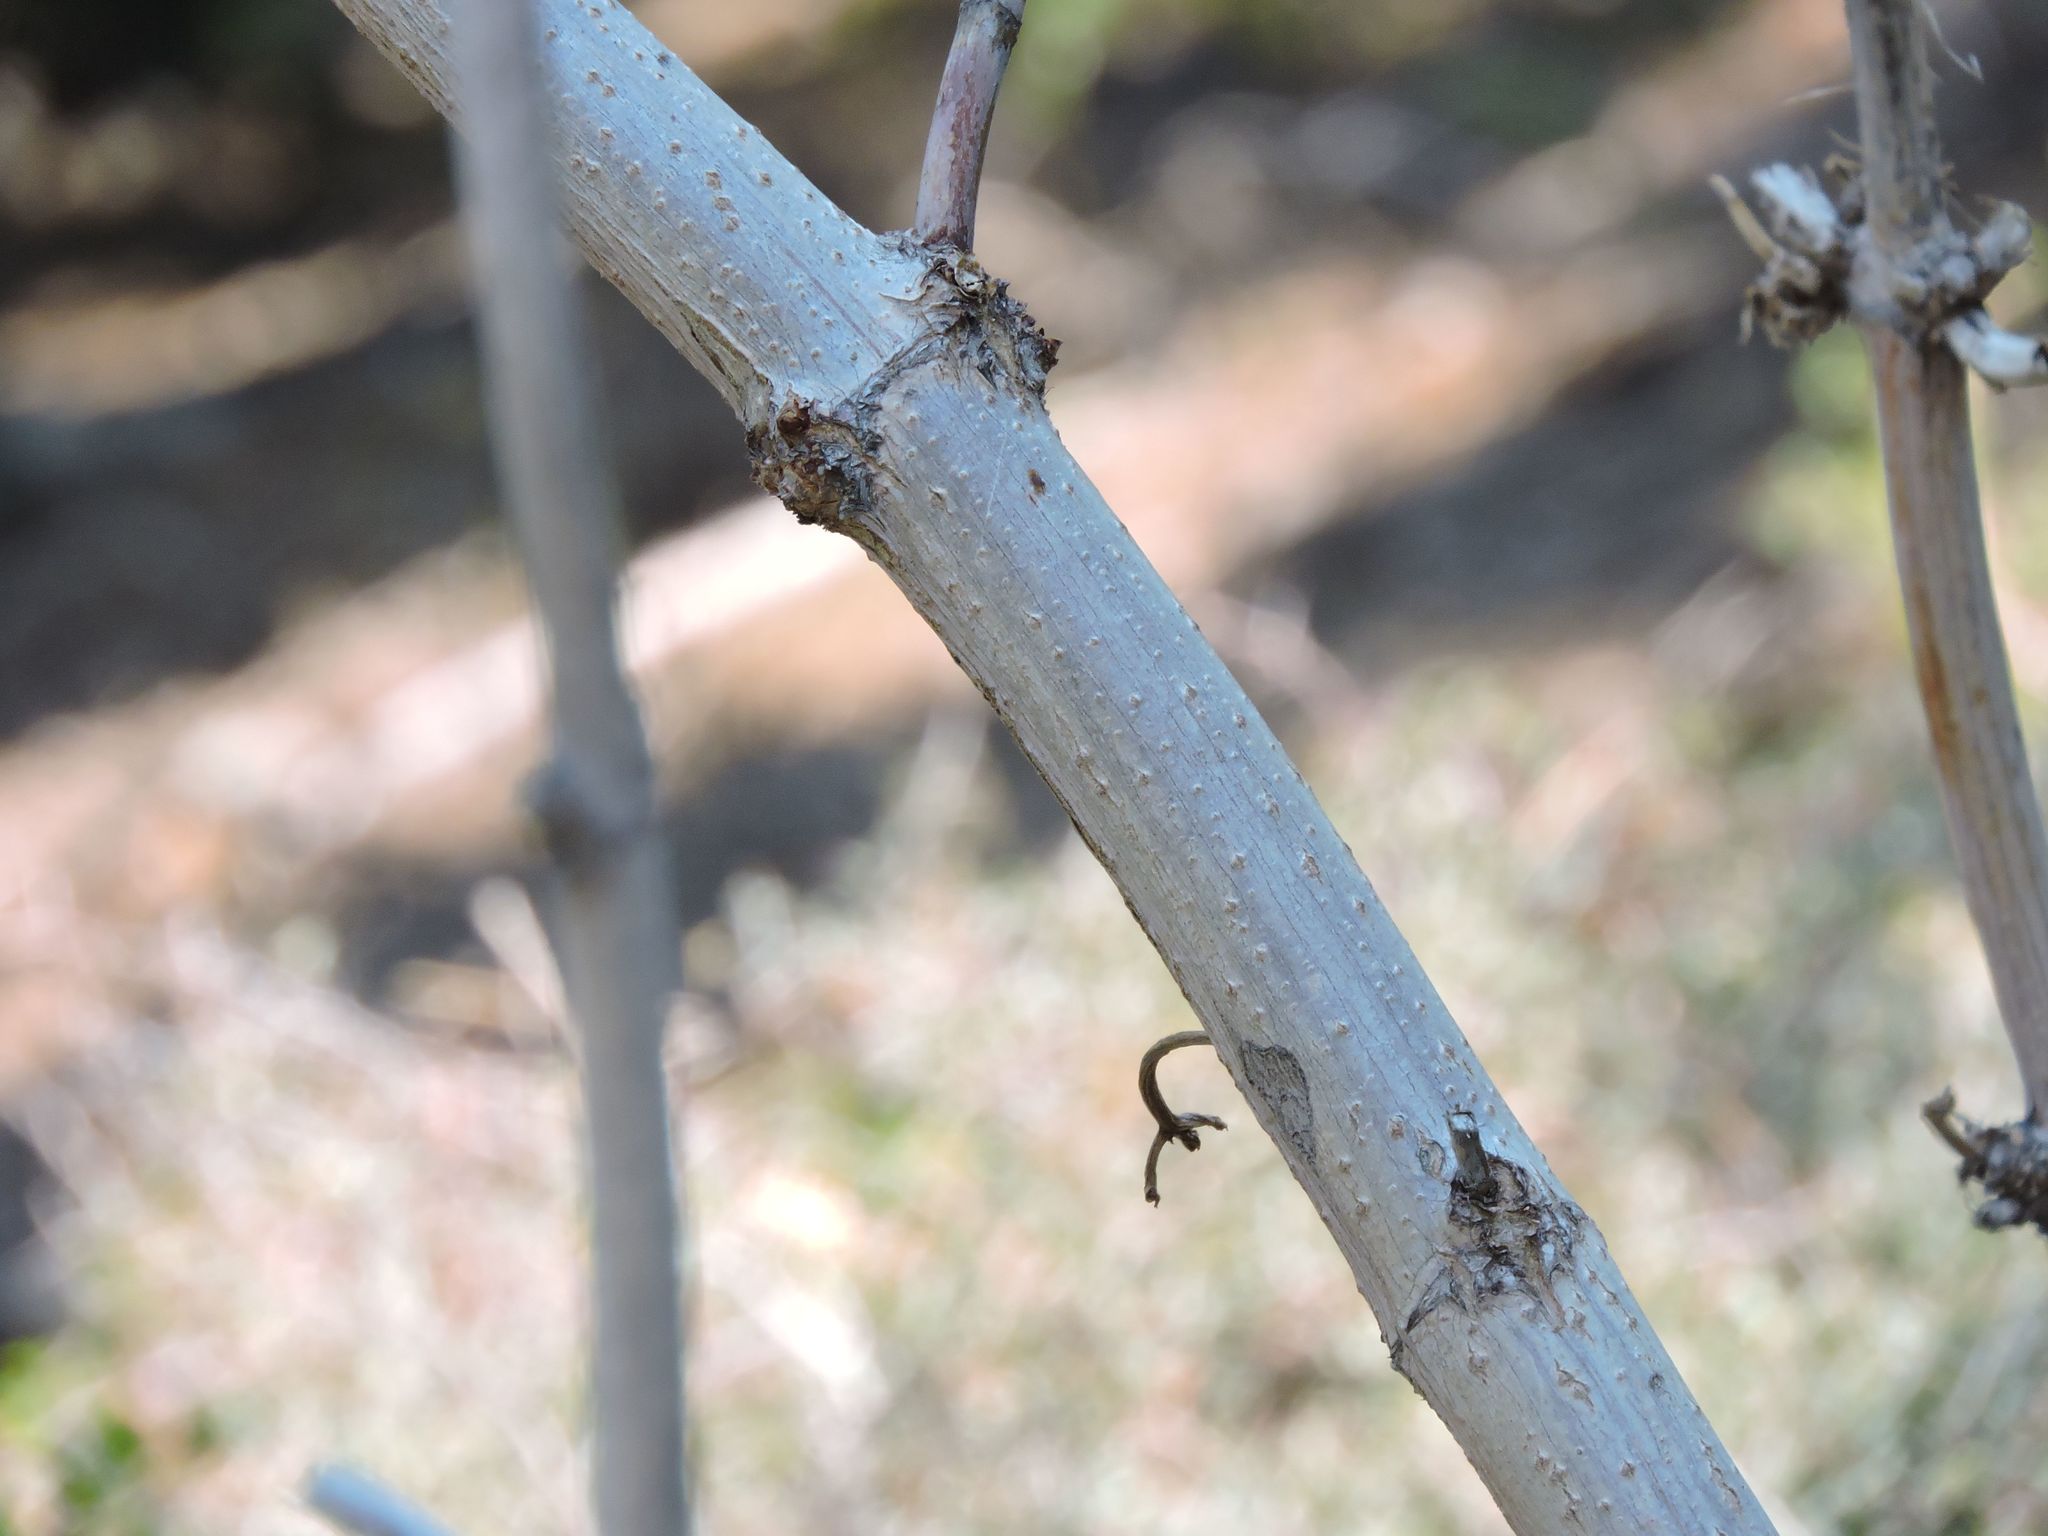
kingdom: Plantae
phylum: Tracheophyta
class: Magnoliopsida
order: Dipsacales
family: Viburnaceae
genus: Sambucus
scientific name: Sambucus cerulea
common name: Blue elder
